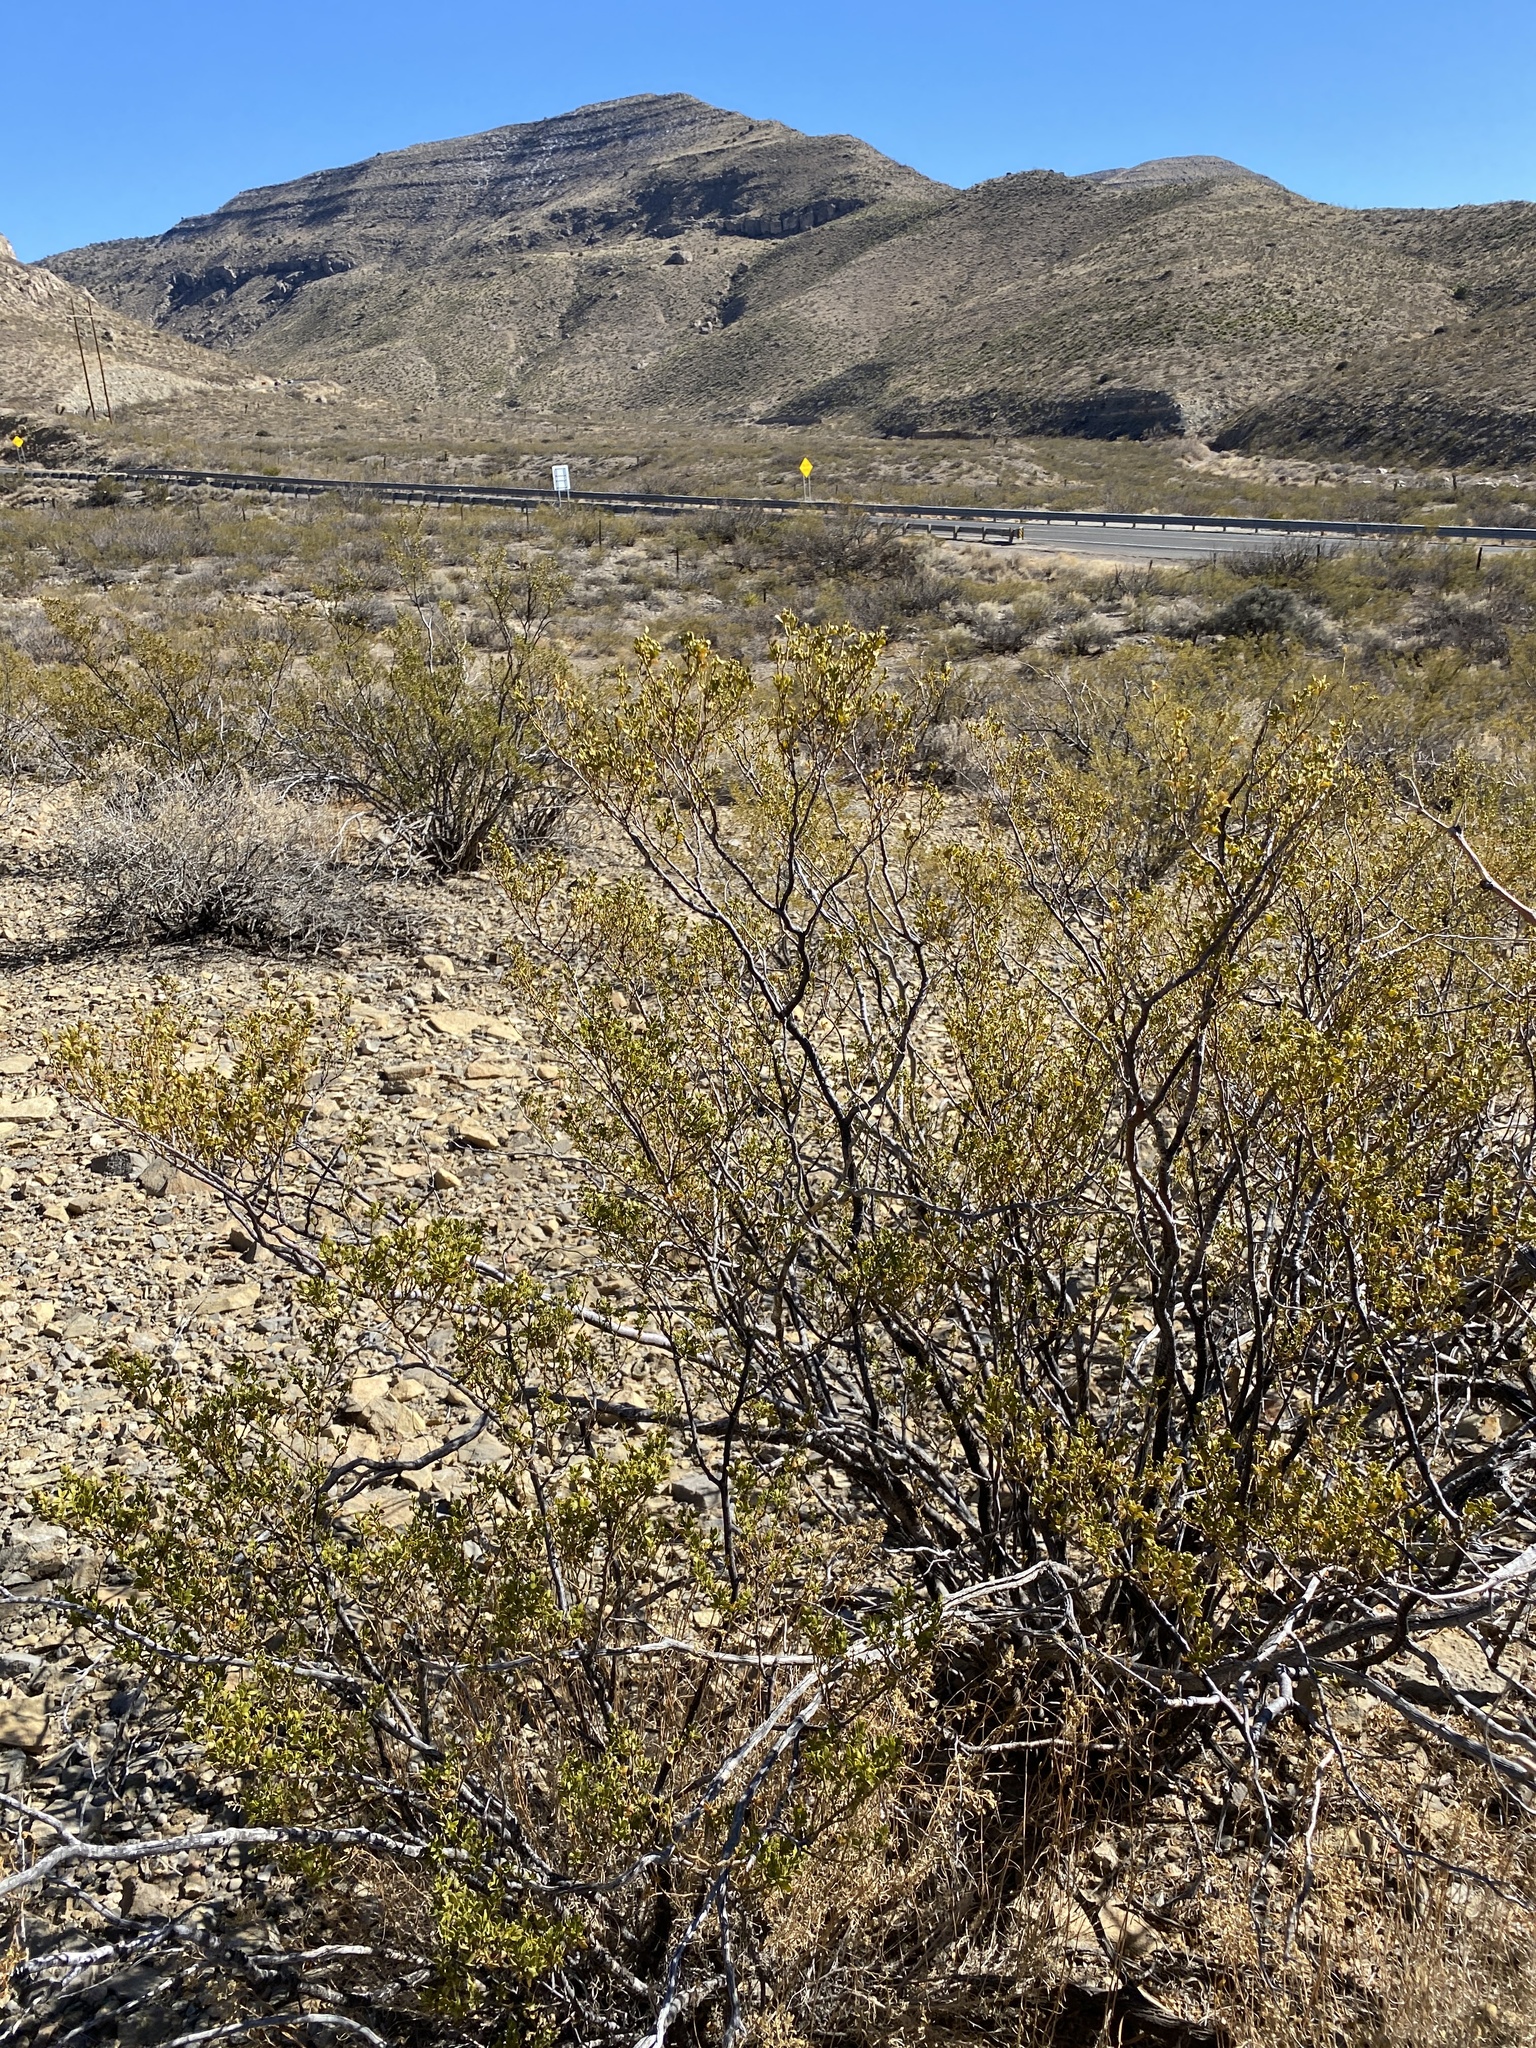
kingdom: Plantae
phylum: Tracheophyta
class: Magnoliopsida
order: Zygophyllales
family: Zygophyllaceae
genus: Larrea
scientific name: Larrea tridentata
